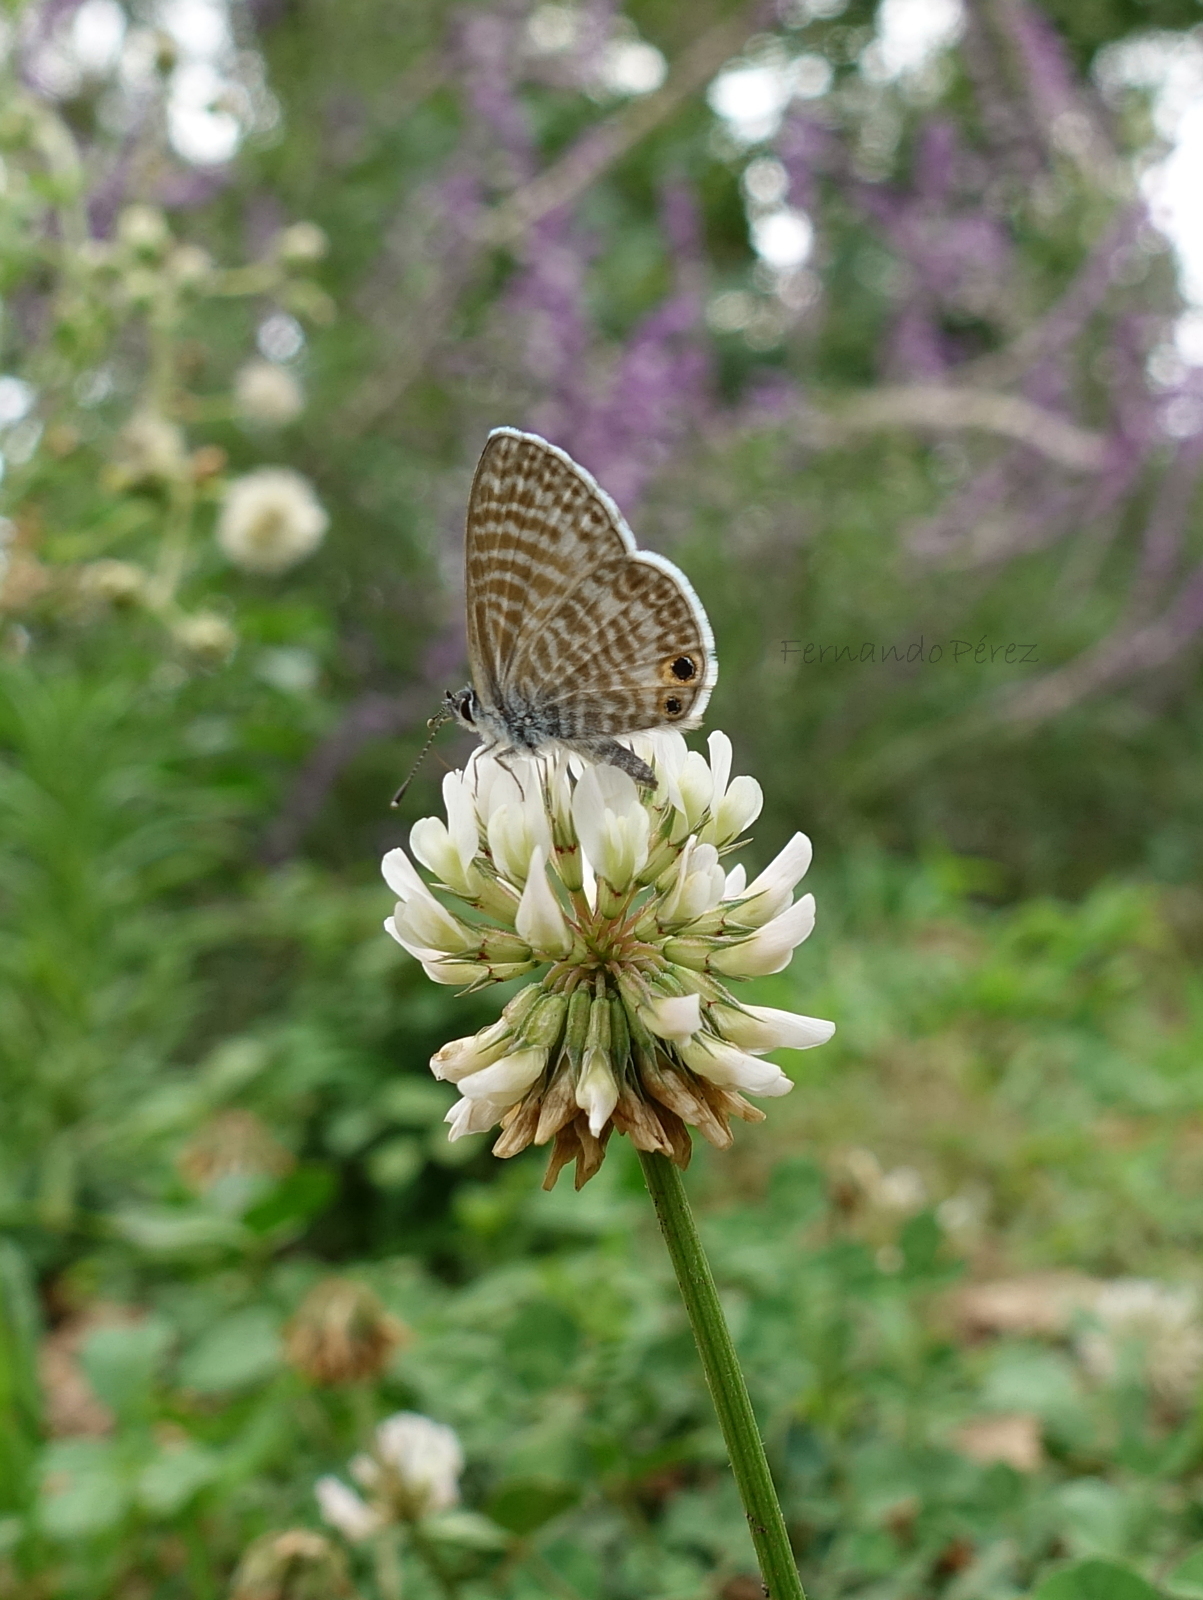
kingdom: Animalia
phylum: Arthropoda
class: Insecta
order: Lepidoptera
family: Lycaenidae
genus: Leptotes
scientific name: Leptotes marina
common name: Marine blue
